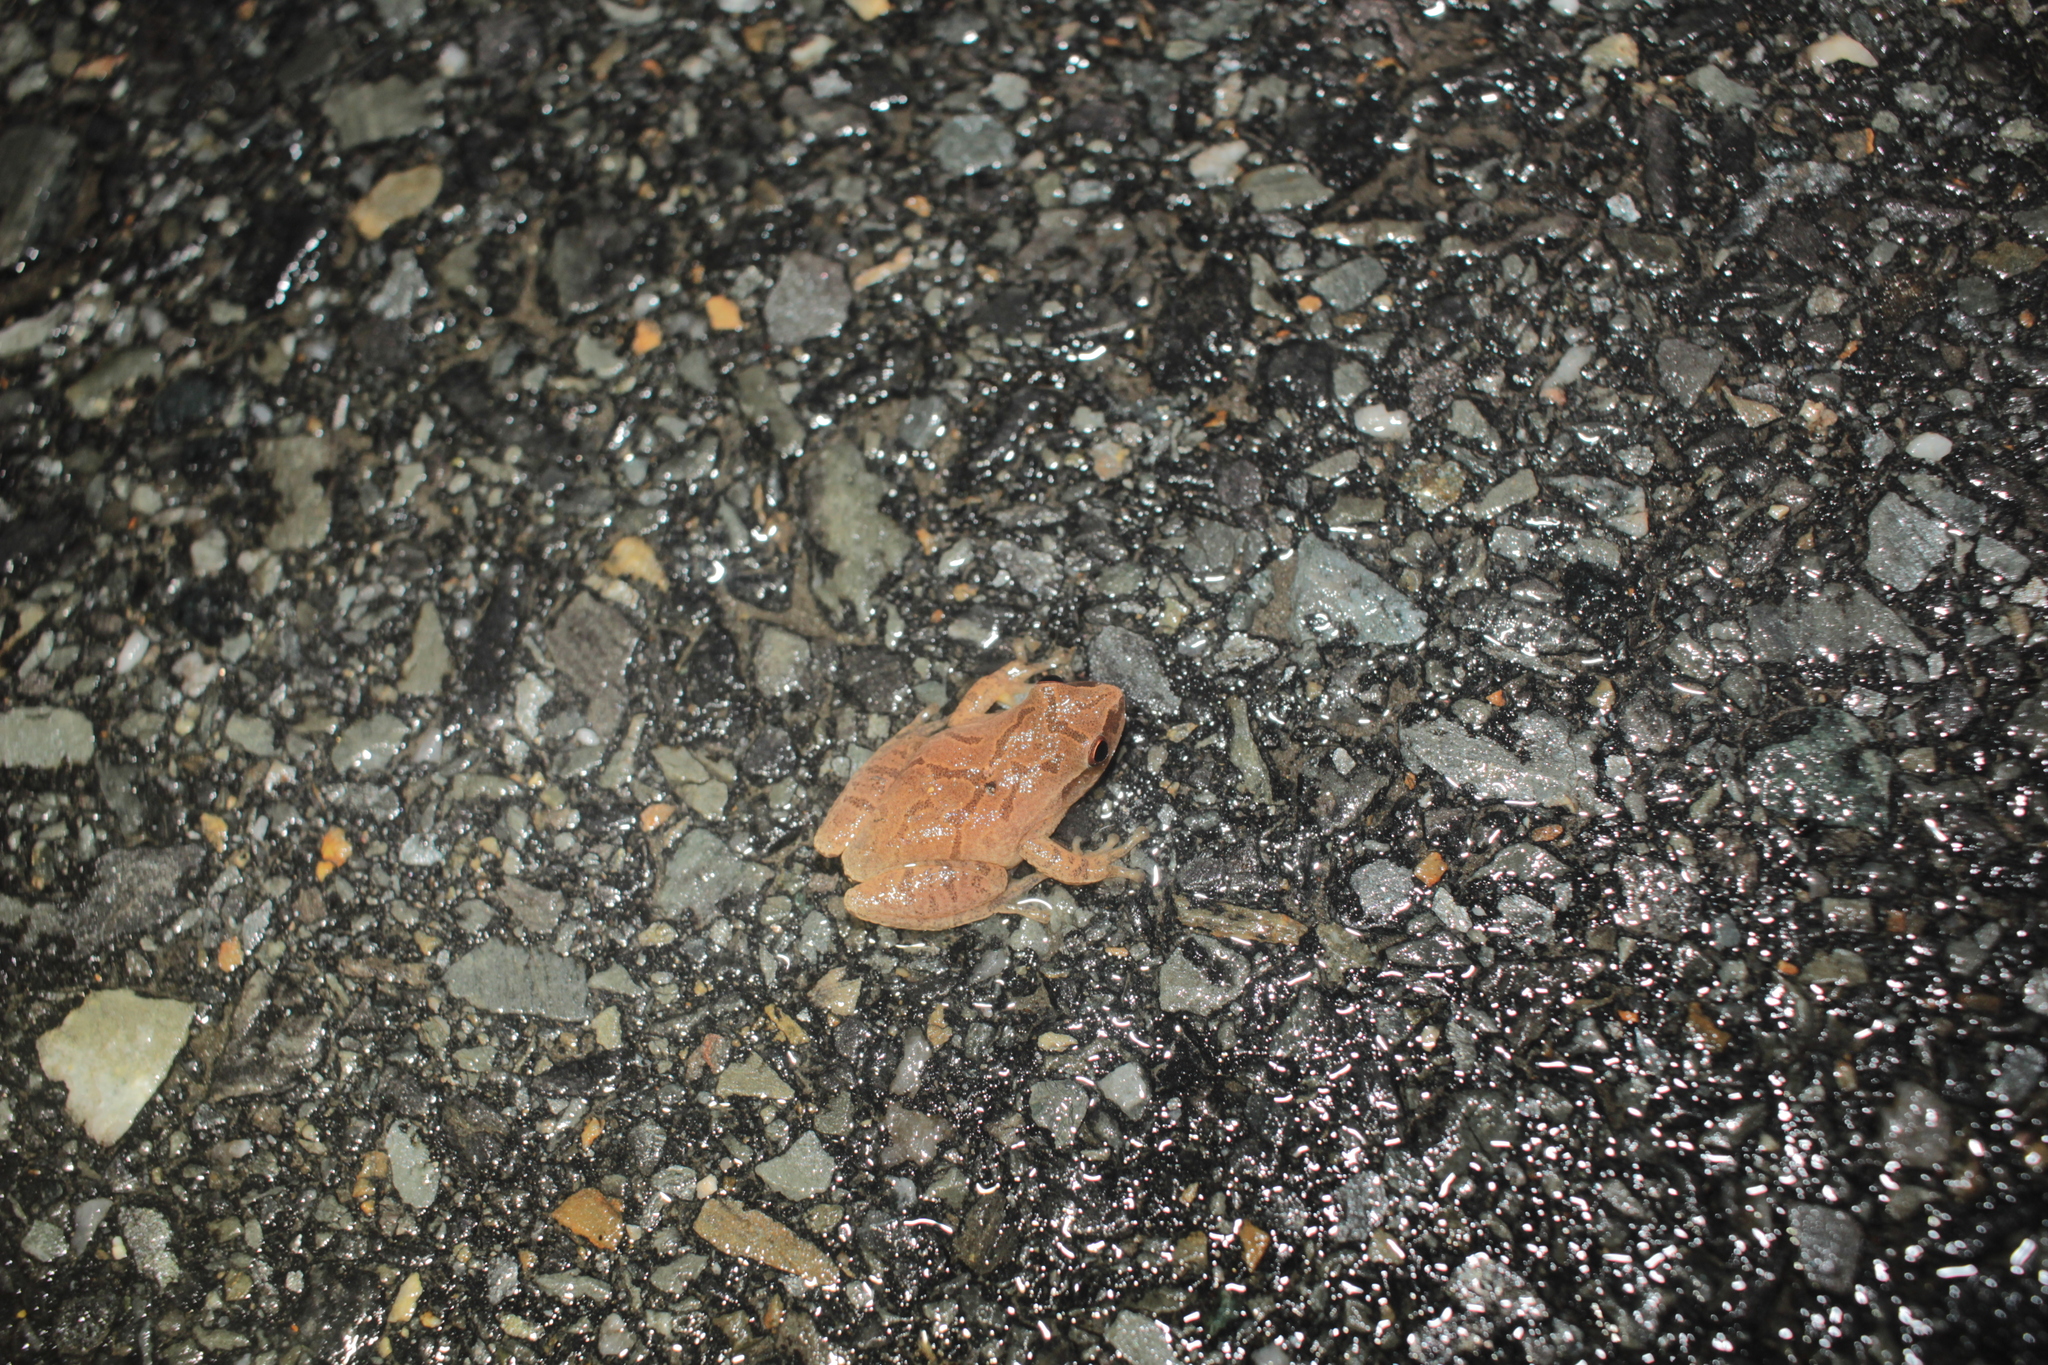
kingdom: Animalia
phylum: Chordata
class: Amphibia
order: Anura
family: Hylidae
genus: Pseudacris
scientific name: Pseudacris crucifer
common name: Spring peeper
